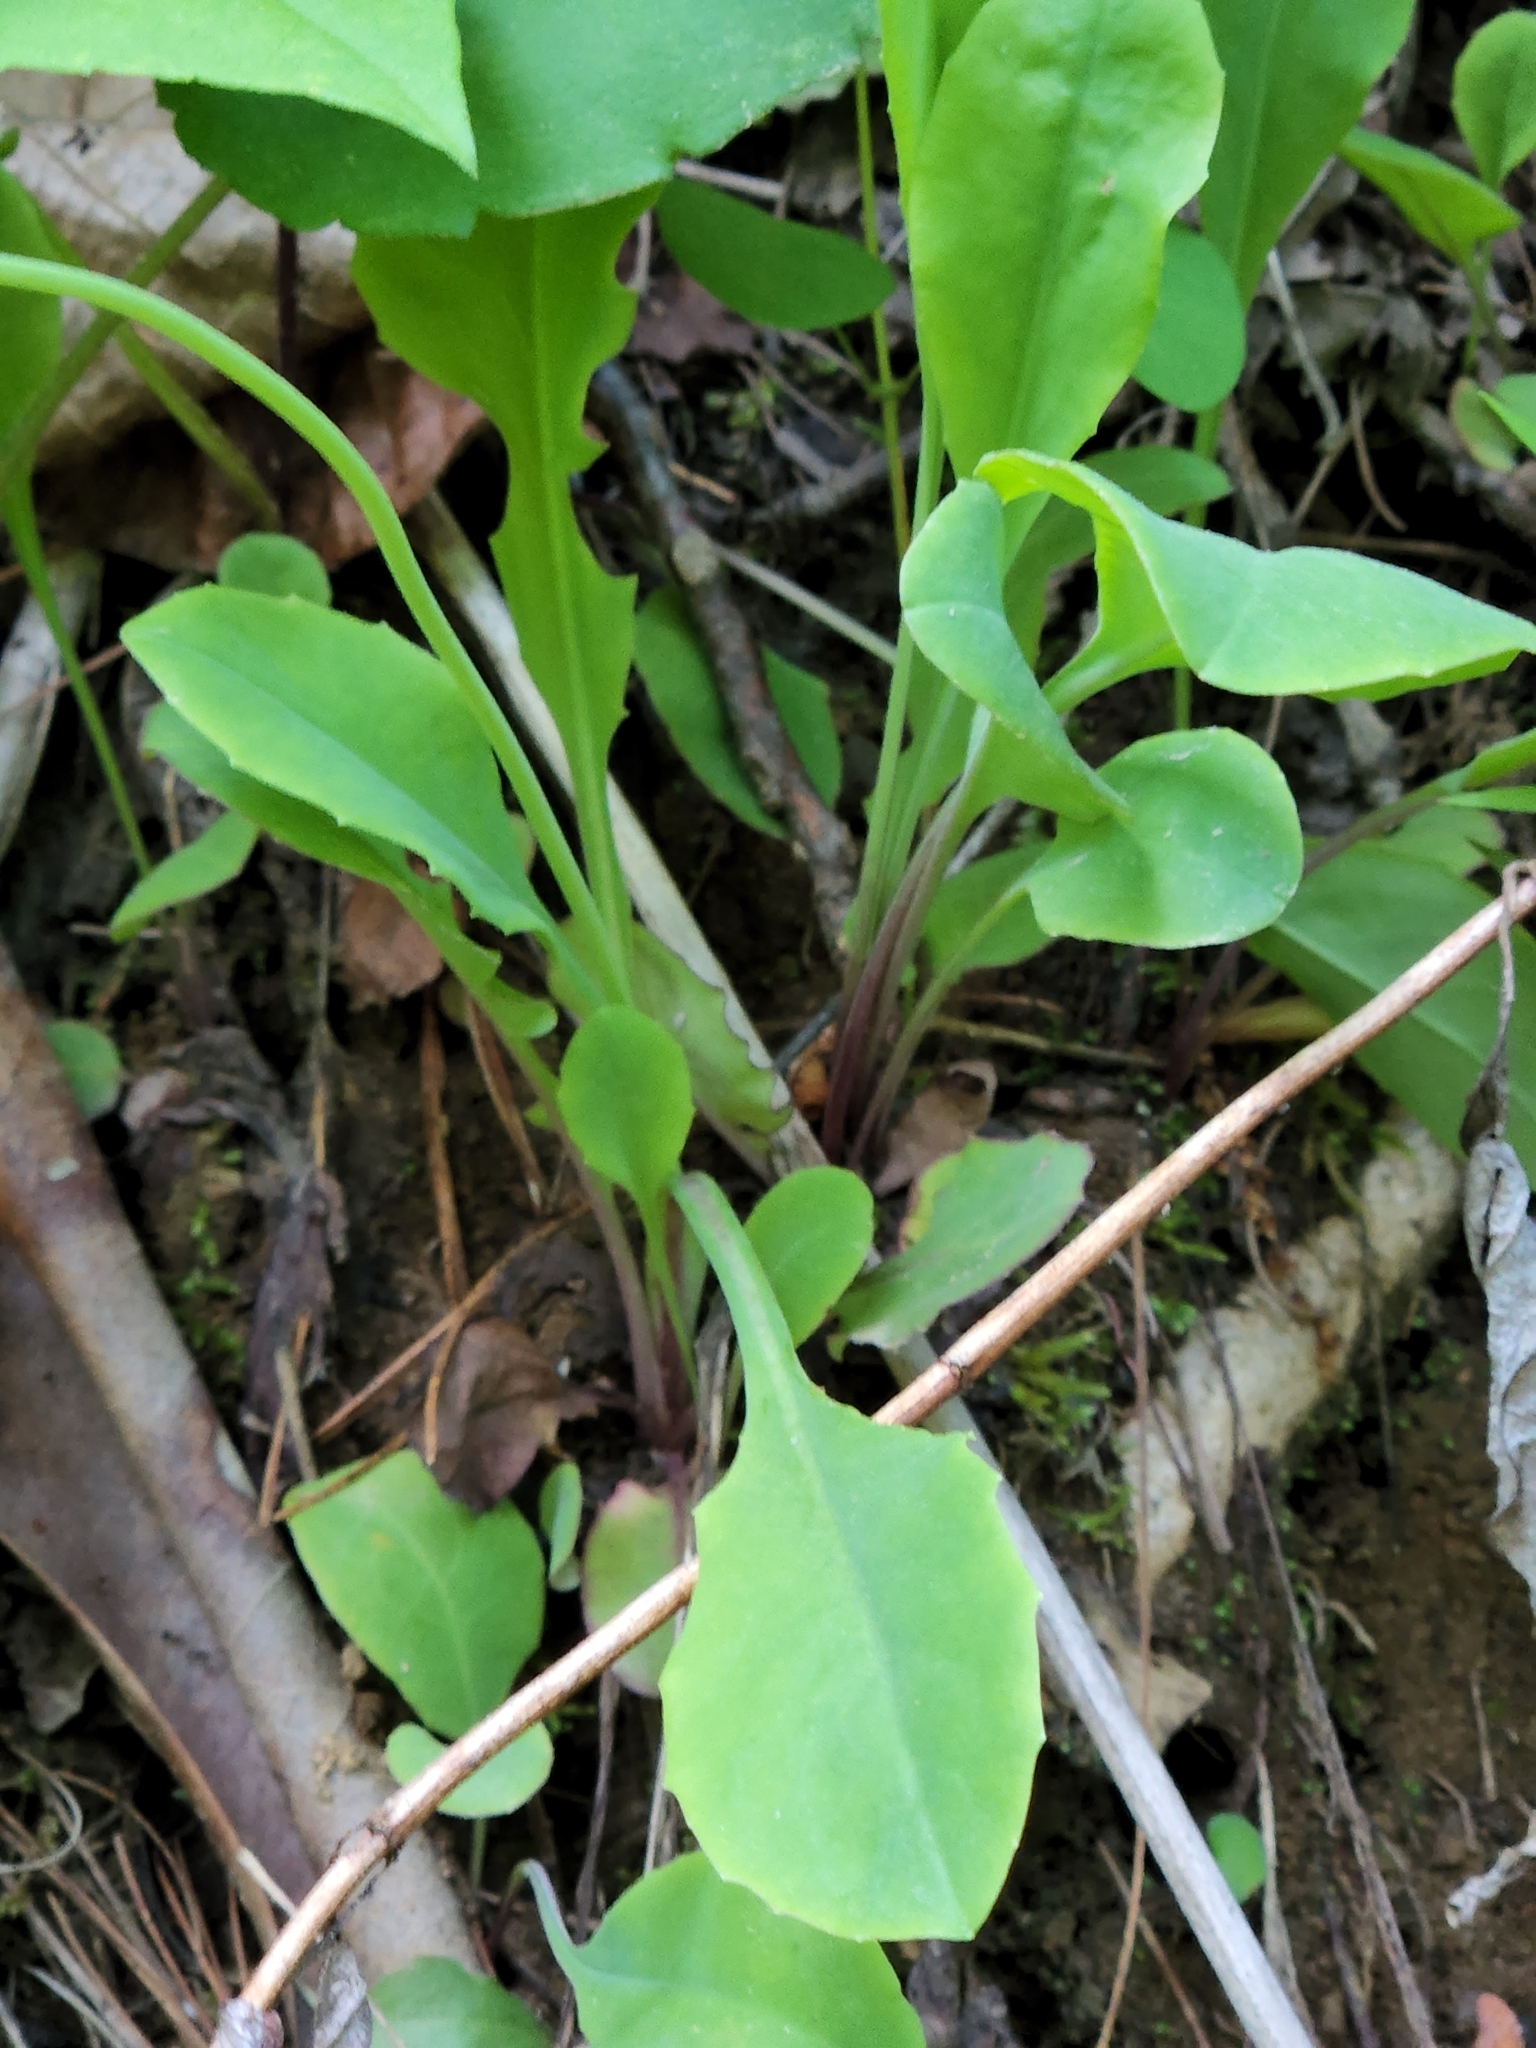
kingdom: Plantae
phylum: Tracheophyta
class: Magnoliopsida
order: Asterales
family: Asteraceae
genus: Krigia
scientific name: Krigia biflora
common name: Orange dwarf-dandelion
